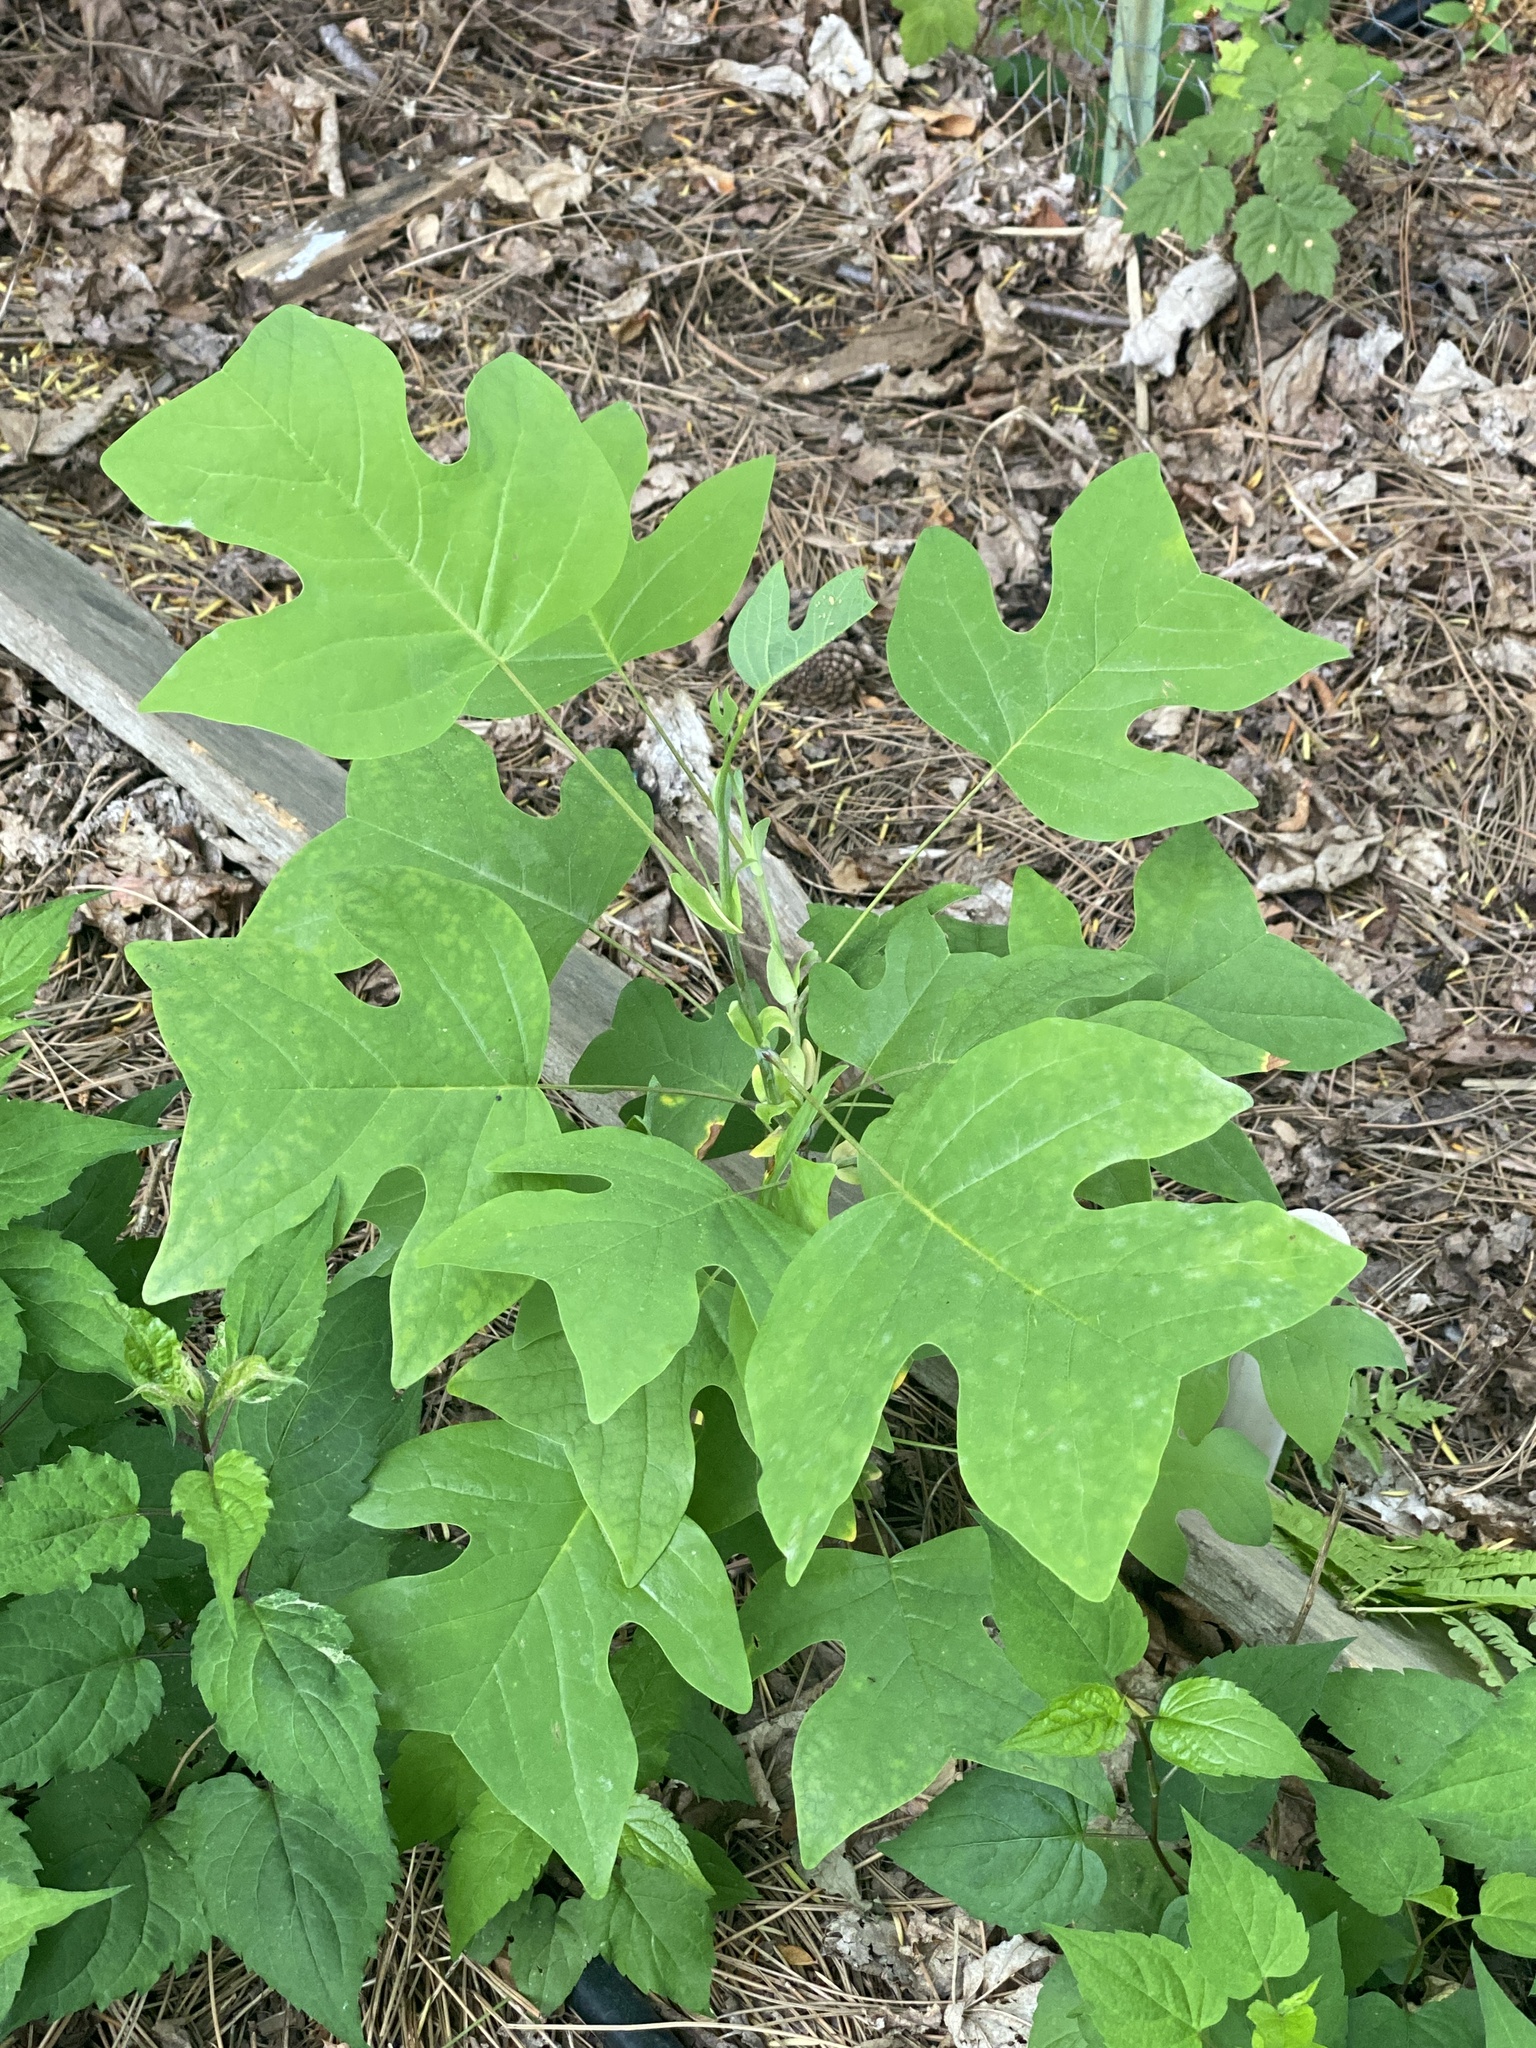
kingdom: Plantae
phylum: Tracheophyta
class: Magnoliopsida
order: Magnoliales
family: Magnoliaceae
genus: Liriodendron
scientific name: Liriodendron tulipifera
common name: Tulip tree
